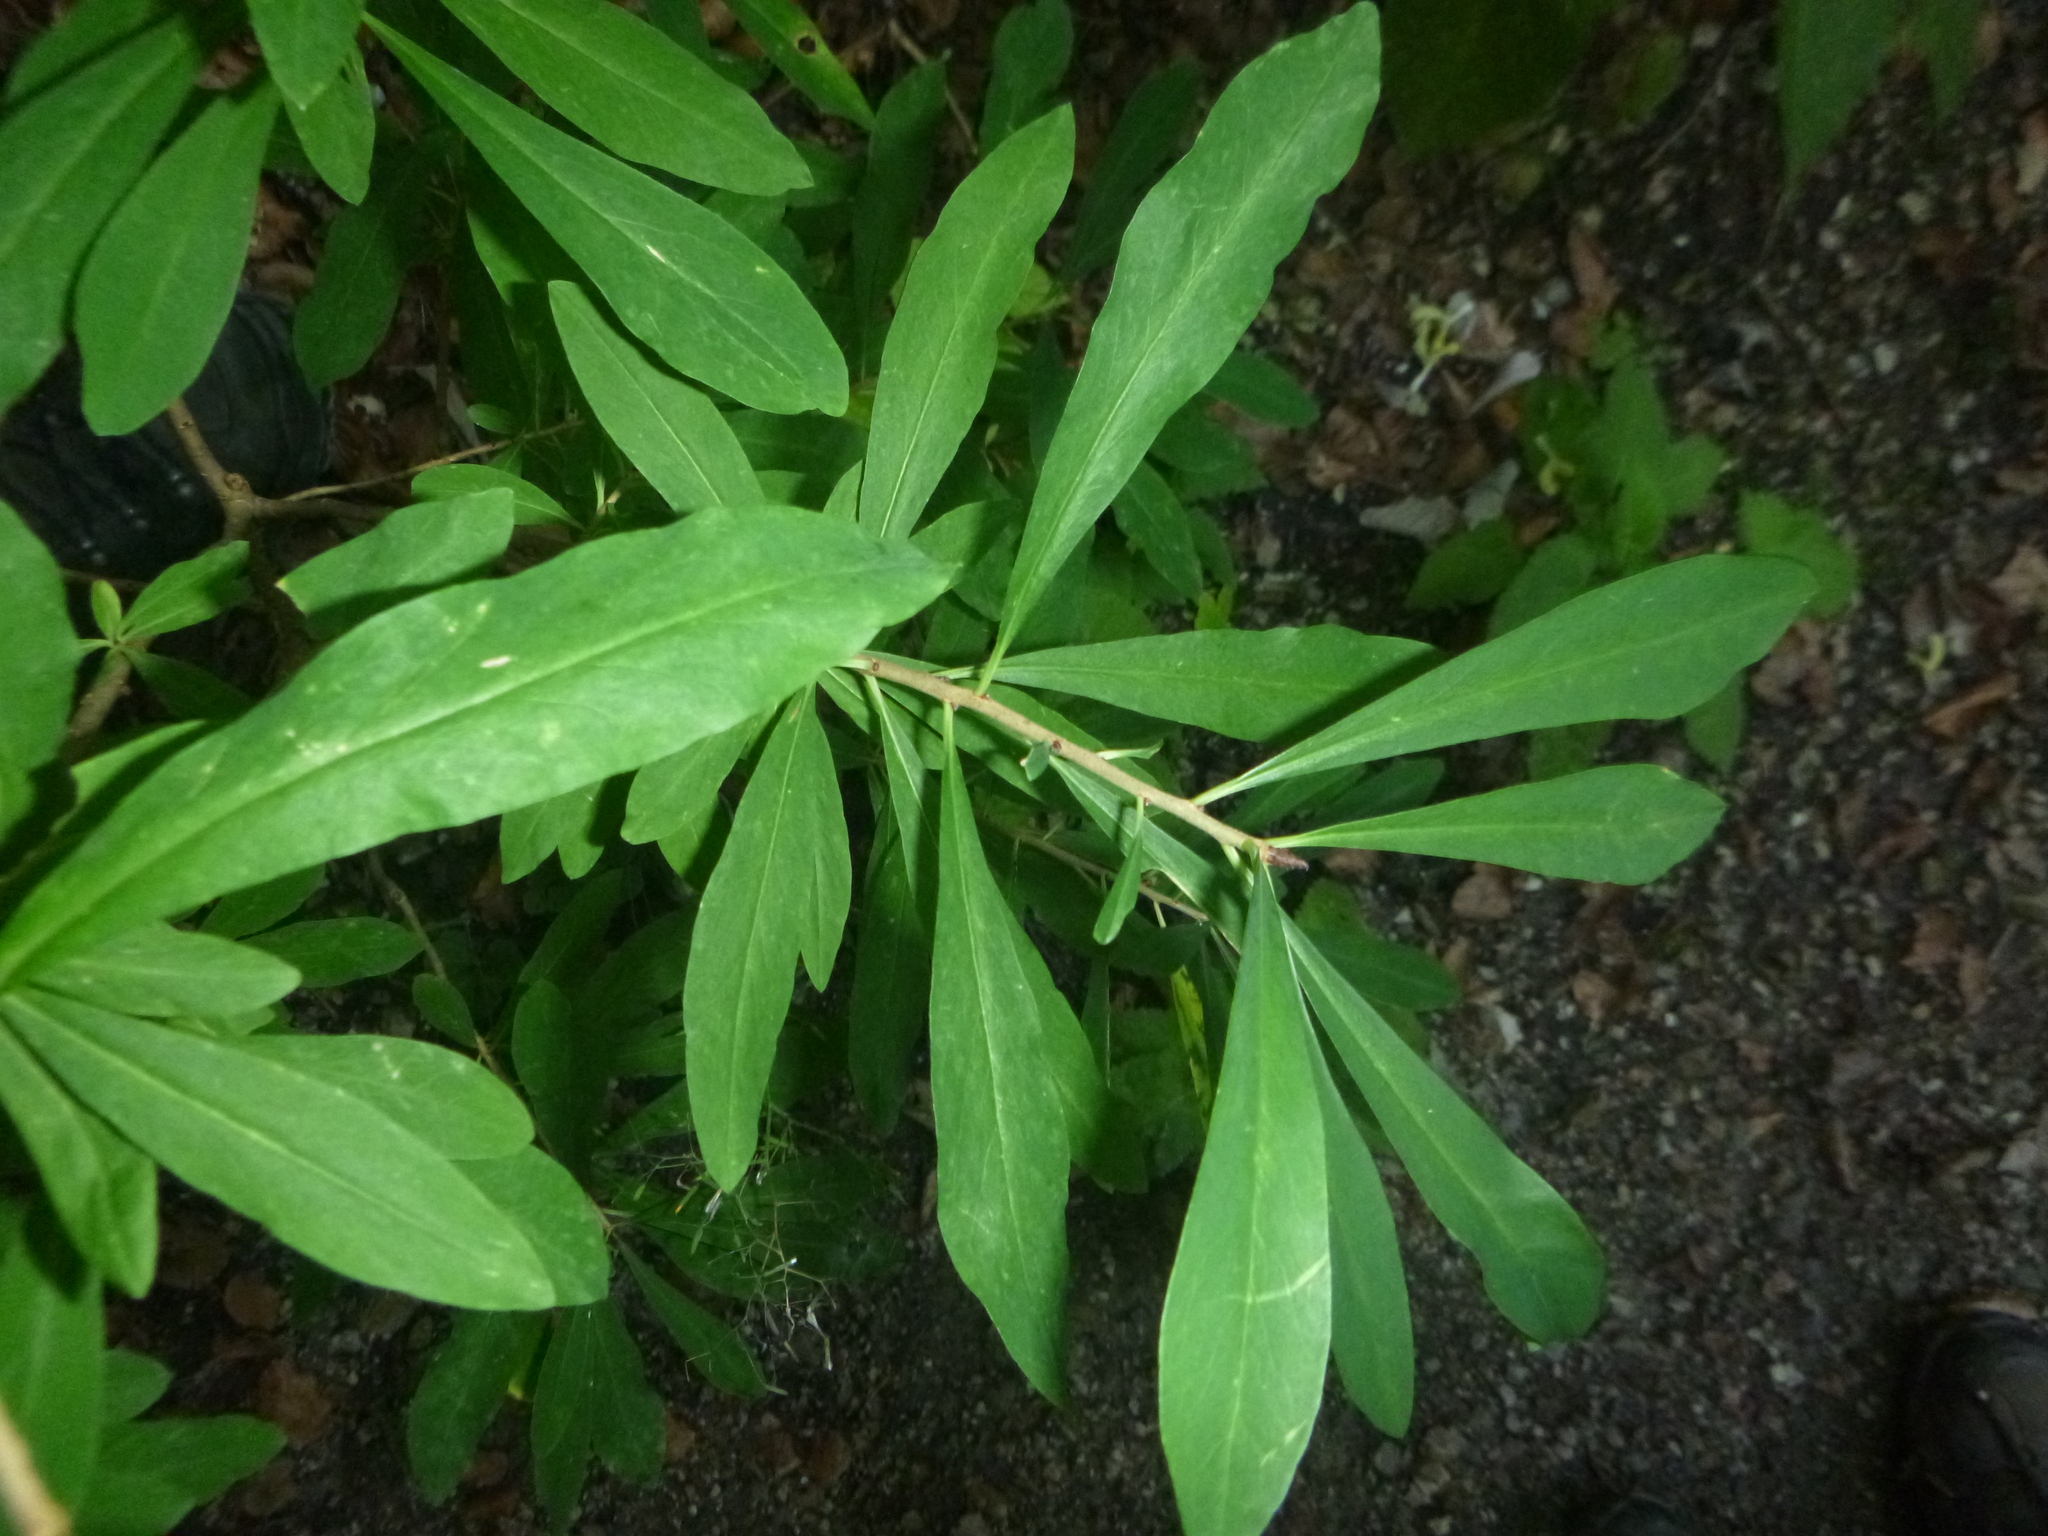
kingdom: Plantae
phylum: Tracheophyta
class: Magnoliopsida
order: Malvales
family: Thymelaeaceae
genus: Daphne
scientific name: Daphne mezereum
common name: Mezereon
